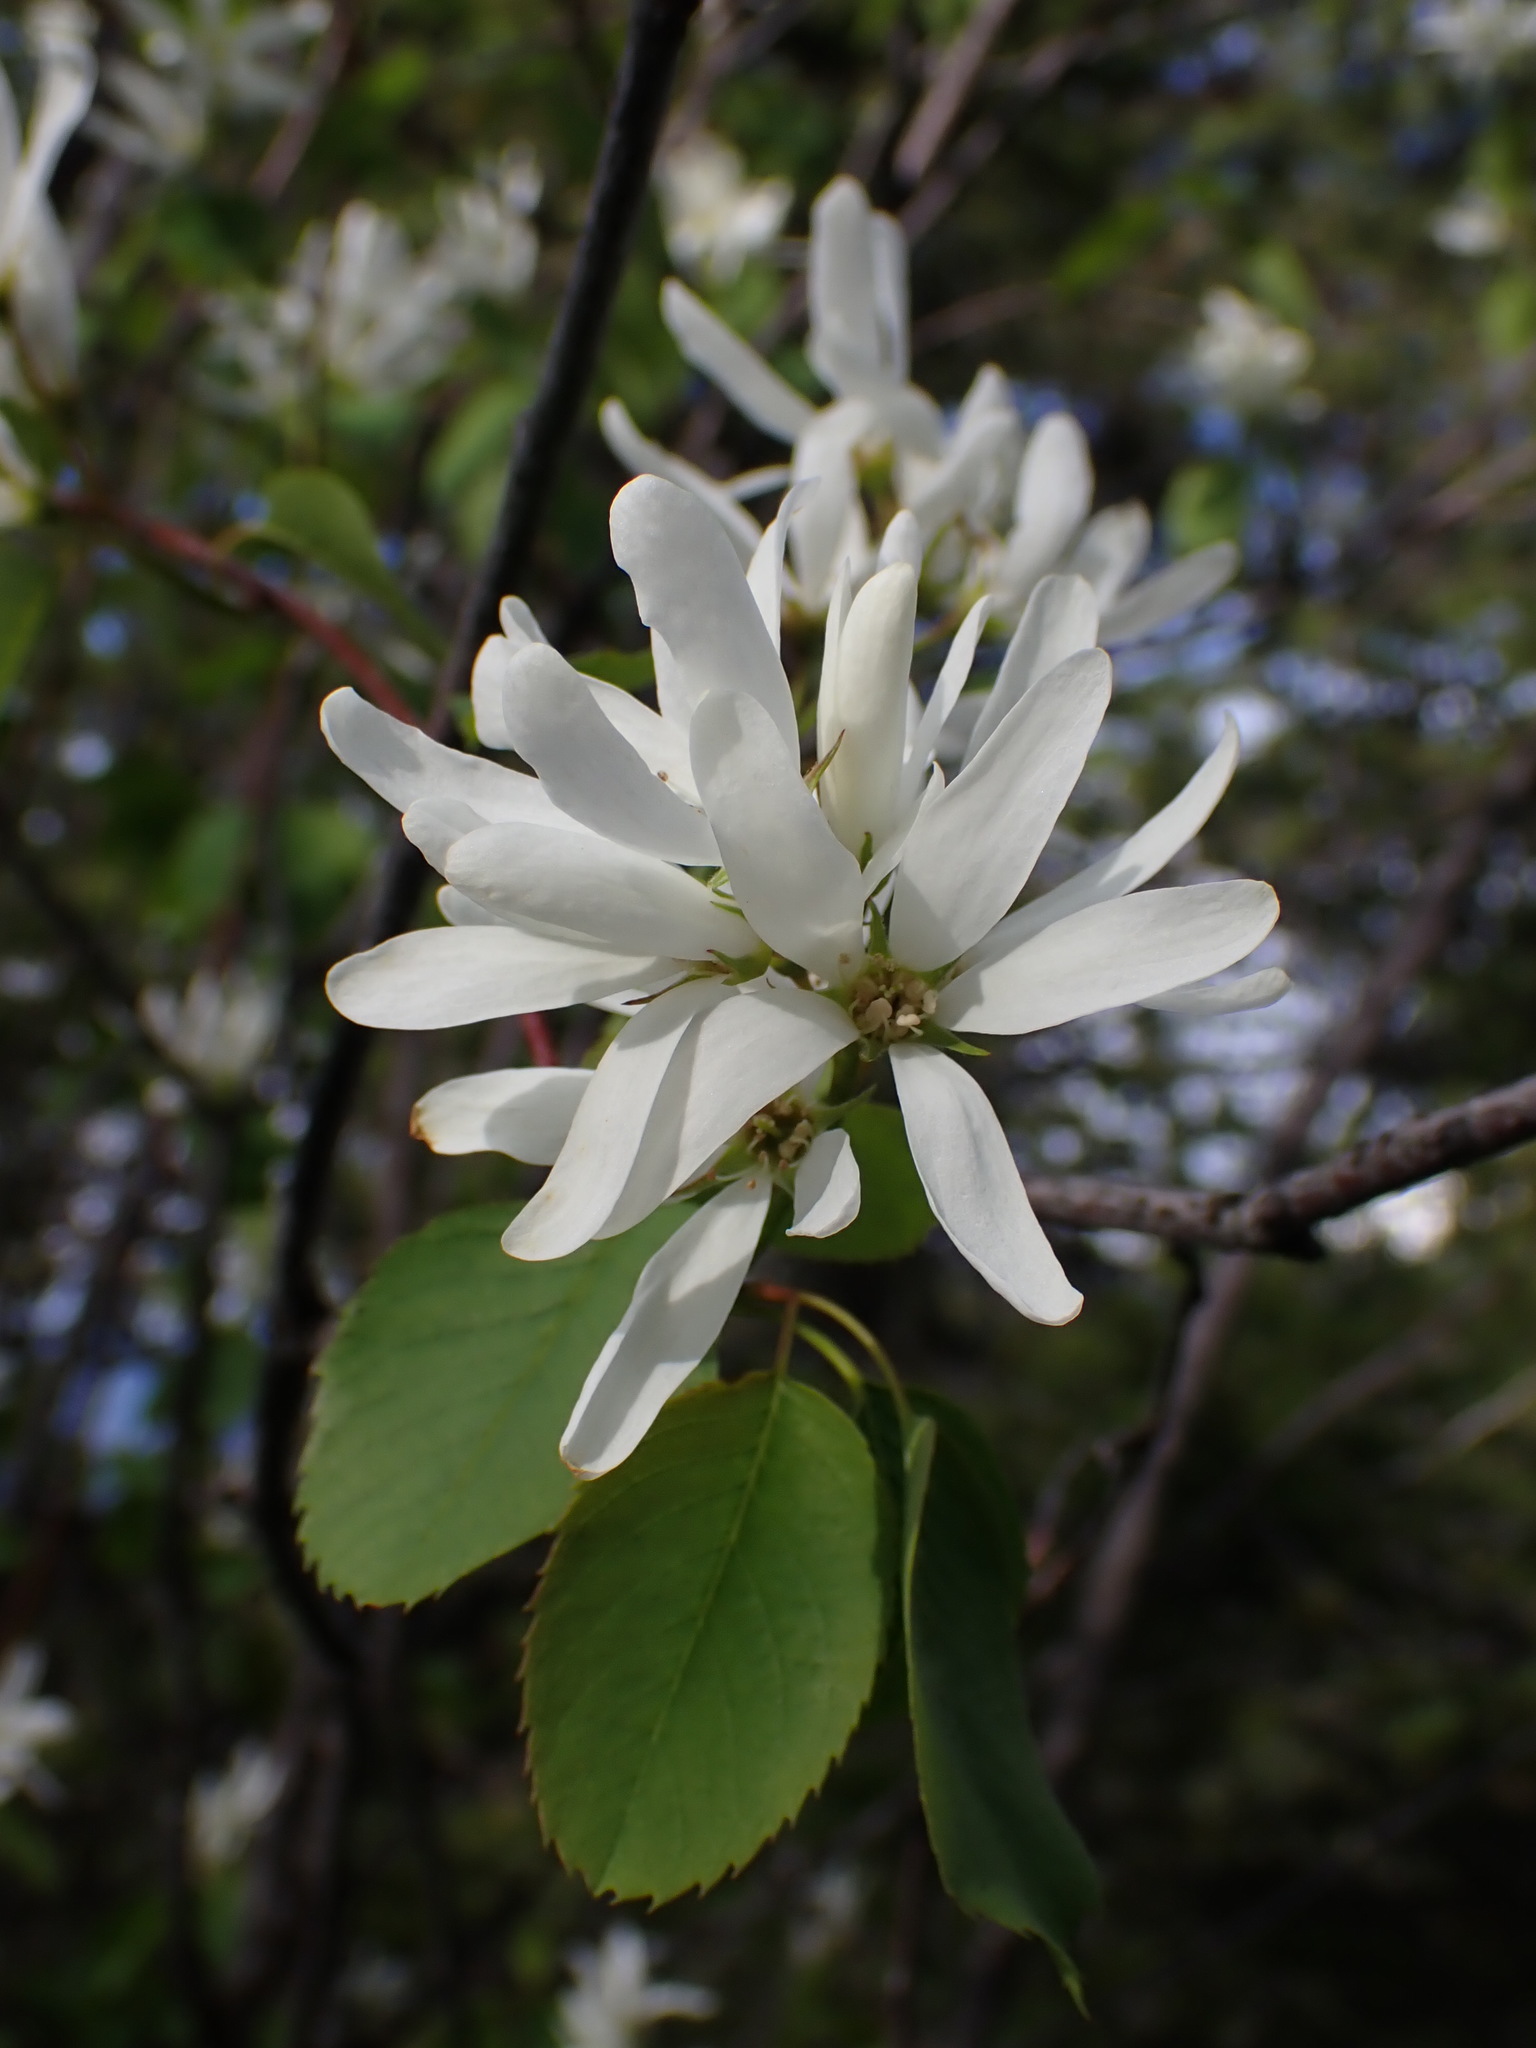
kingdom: Plantae
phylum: Tracheophyta
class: Magnoliopsida
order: Rosales
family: Rosaceae
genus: Amelanchier
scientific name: Amelanchier alnifolia
